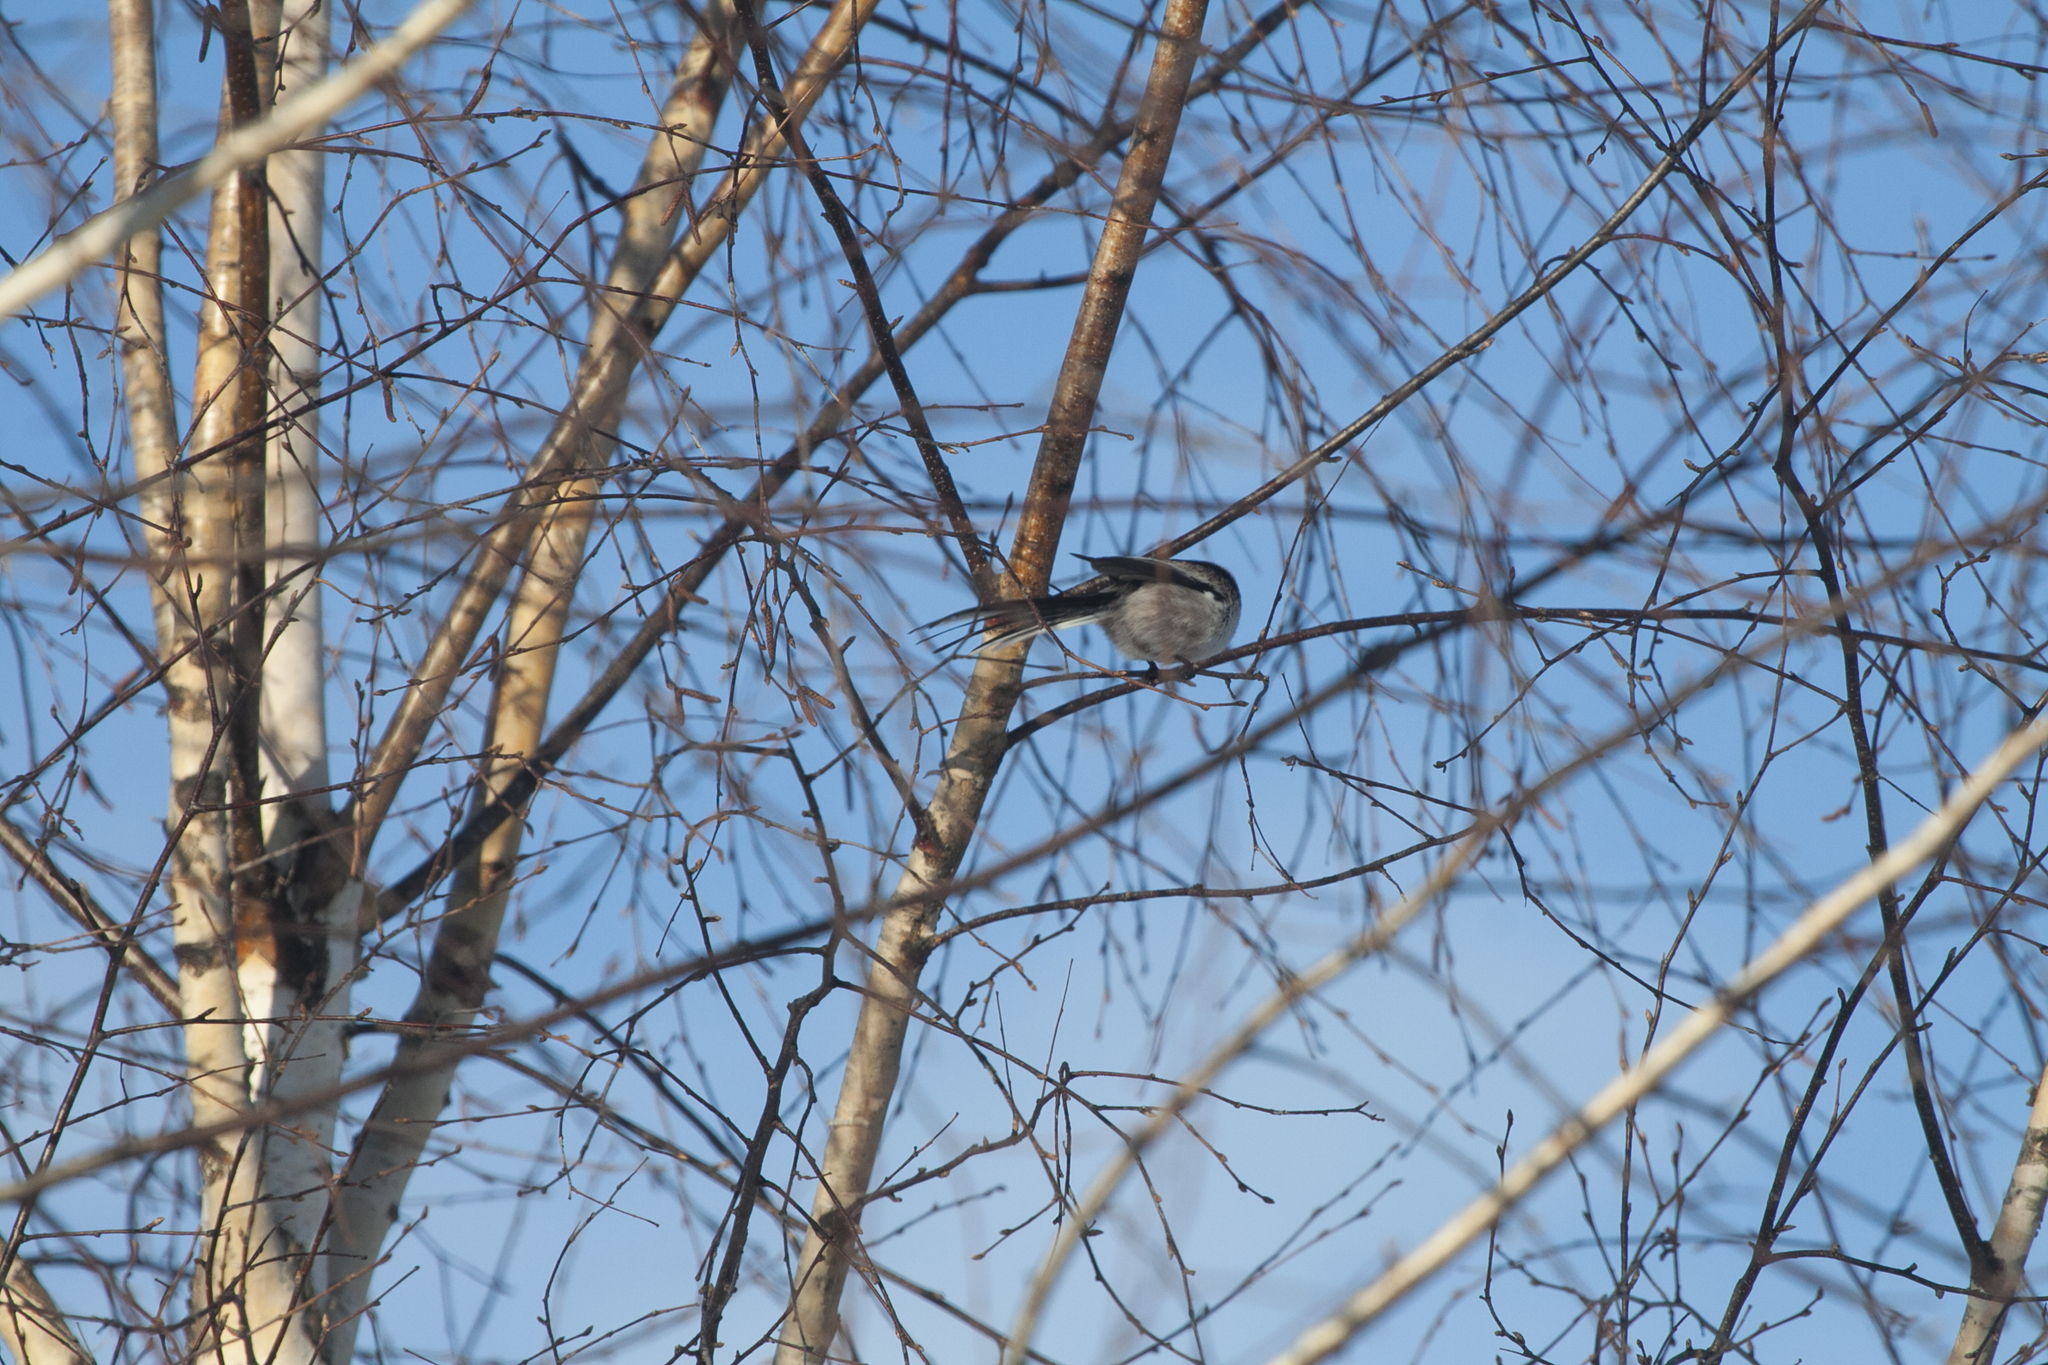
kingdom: Animalia
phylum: Chordata
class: Aves
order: Passeriformes
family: Aegithalidae
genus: Aegithalos
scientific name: Aegithalos caudatus
